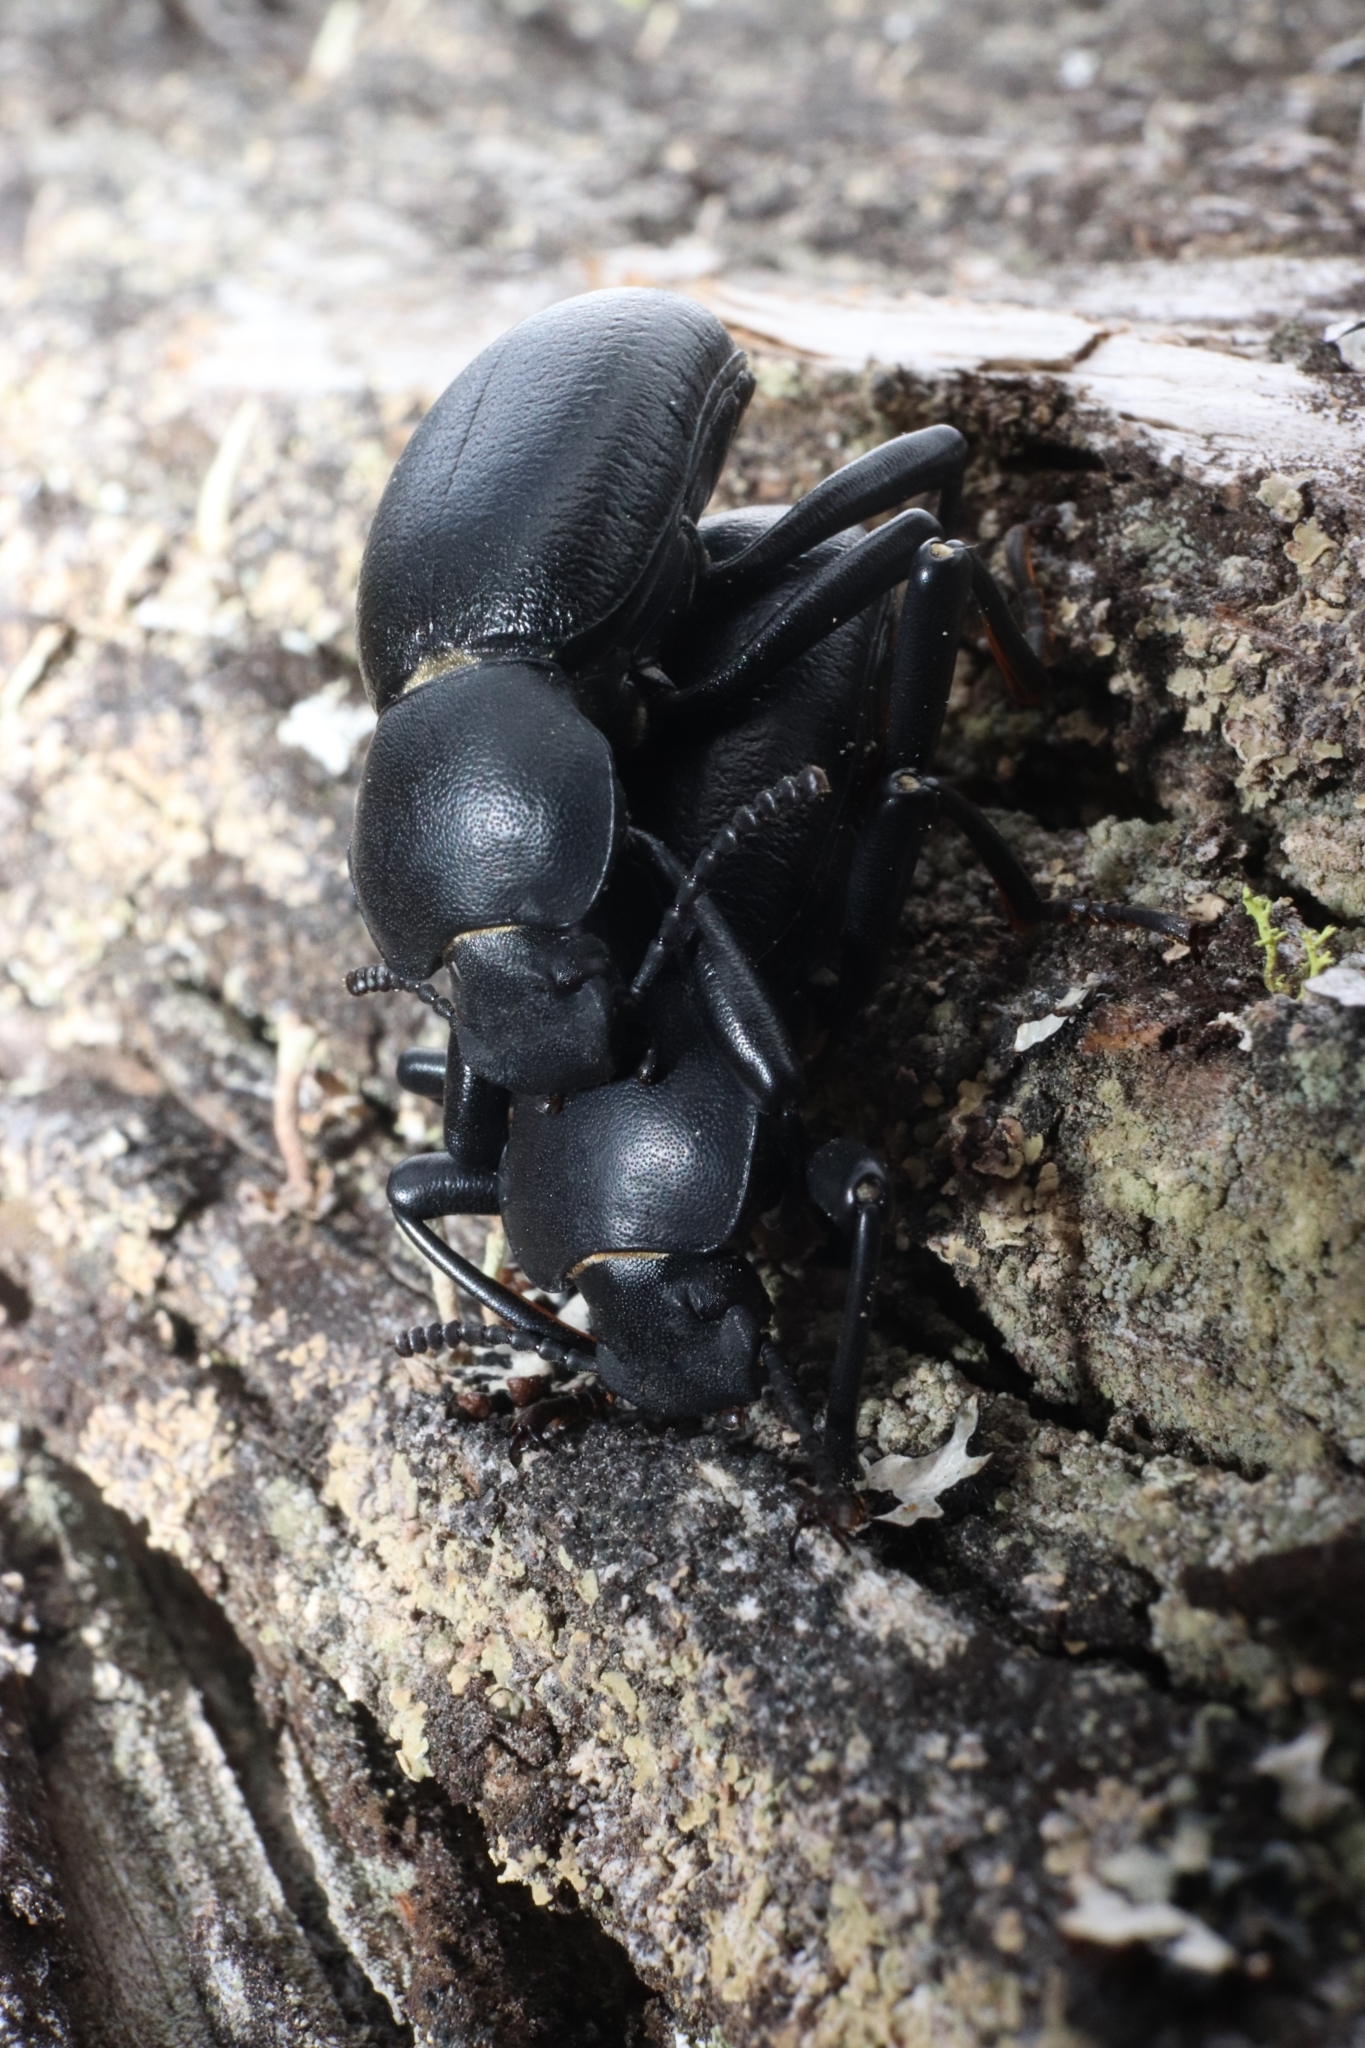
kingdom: Animalia
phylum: Arthropoda
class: Insecta
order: Coleoptera
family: Tenebrionidae
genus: Coelocnemis
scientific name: Coelocnemis dilaticollis
